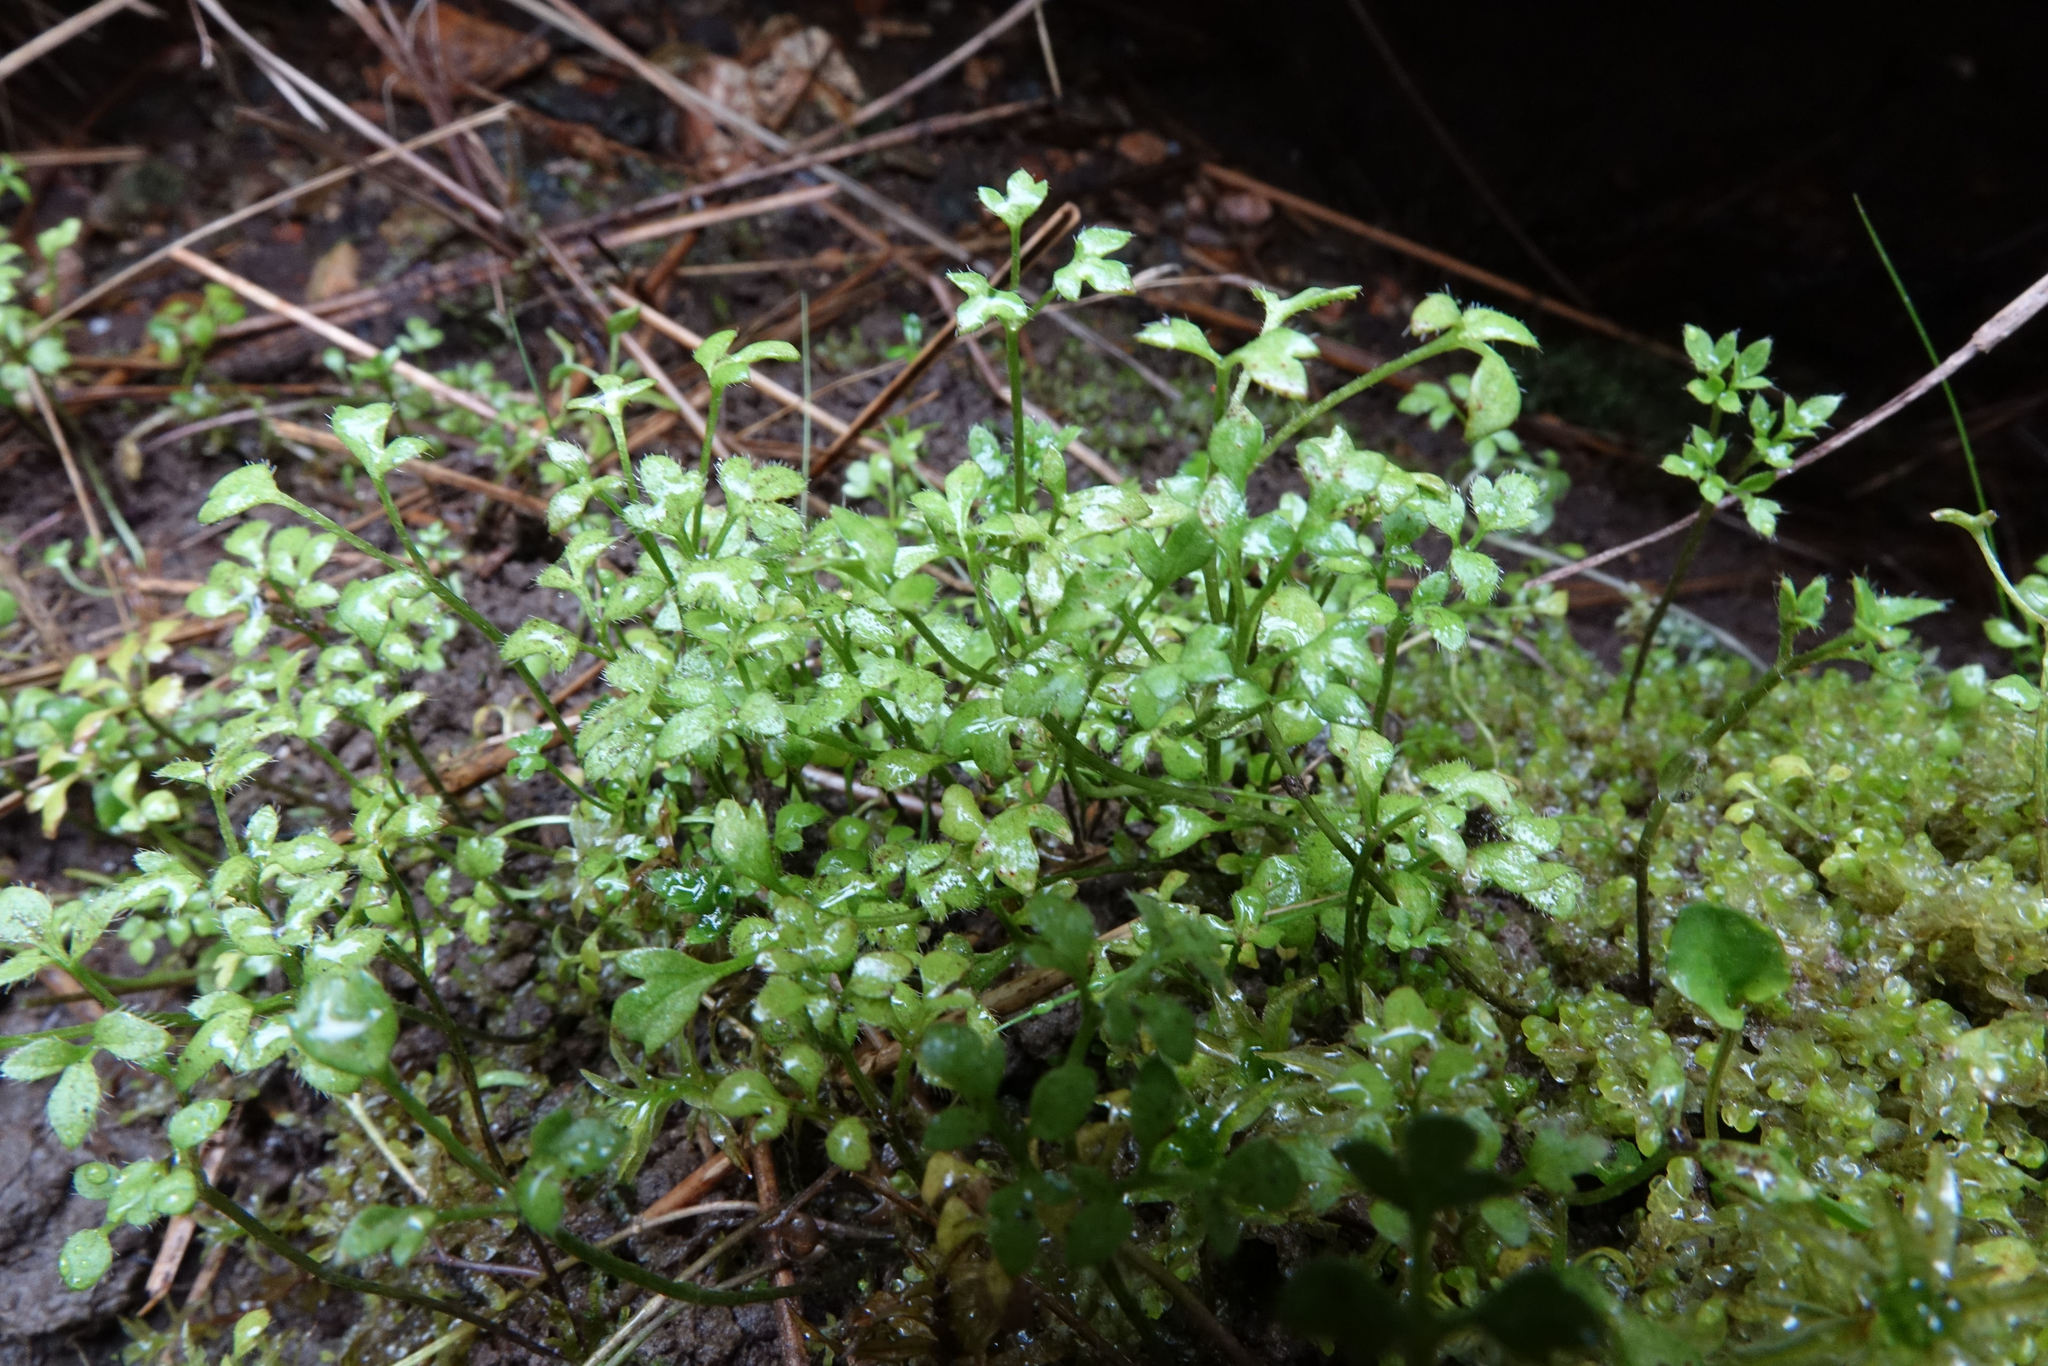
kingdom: Plantae
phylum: Tracheophyta
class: Magnoliopsida
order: Ranunculales
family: Ranunculaceae
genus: Ranunculus
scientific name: Ranunculus ternatifolius
